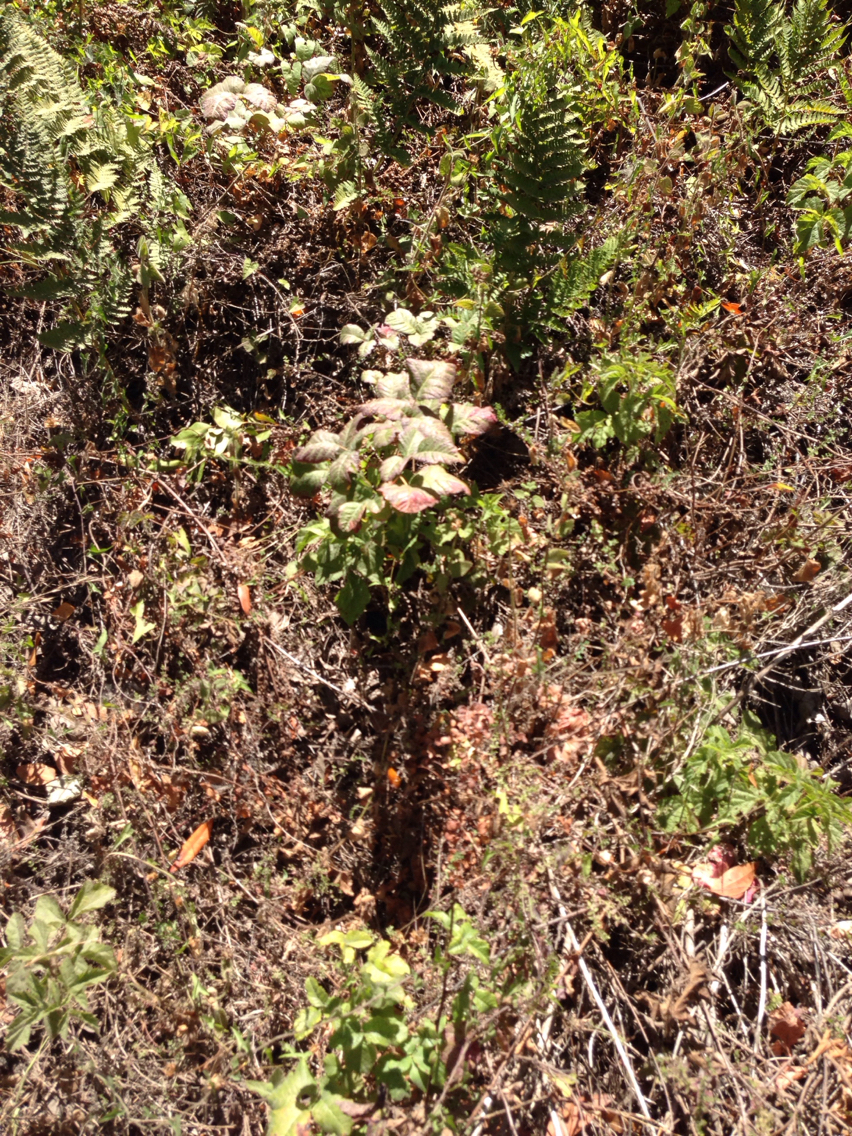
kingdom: Plantae
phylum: Tracheophyta
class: Magnoliopsida
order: Sapindales
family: Anacardiaceae
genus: Toxicodendron
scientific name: Toxicodendron diversilobum
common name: Pacific poison-oak
